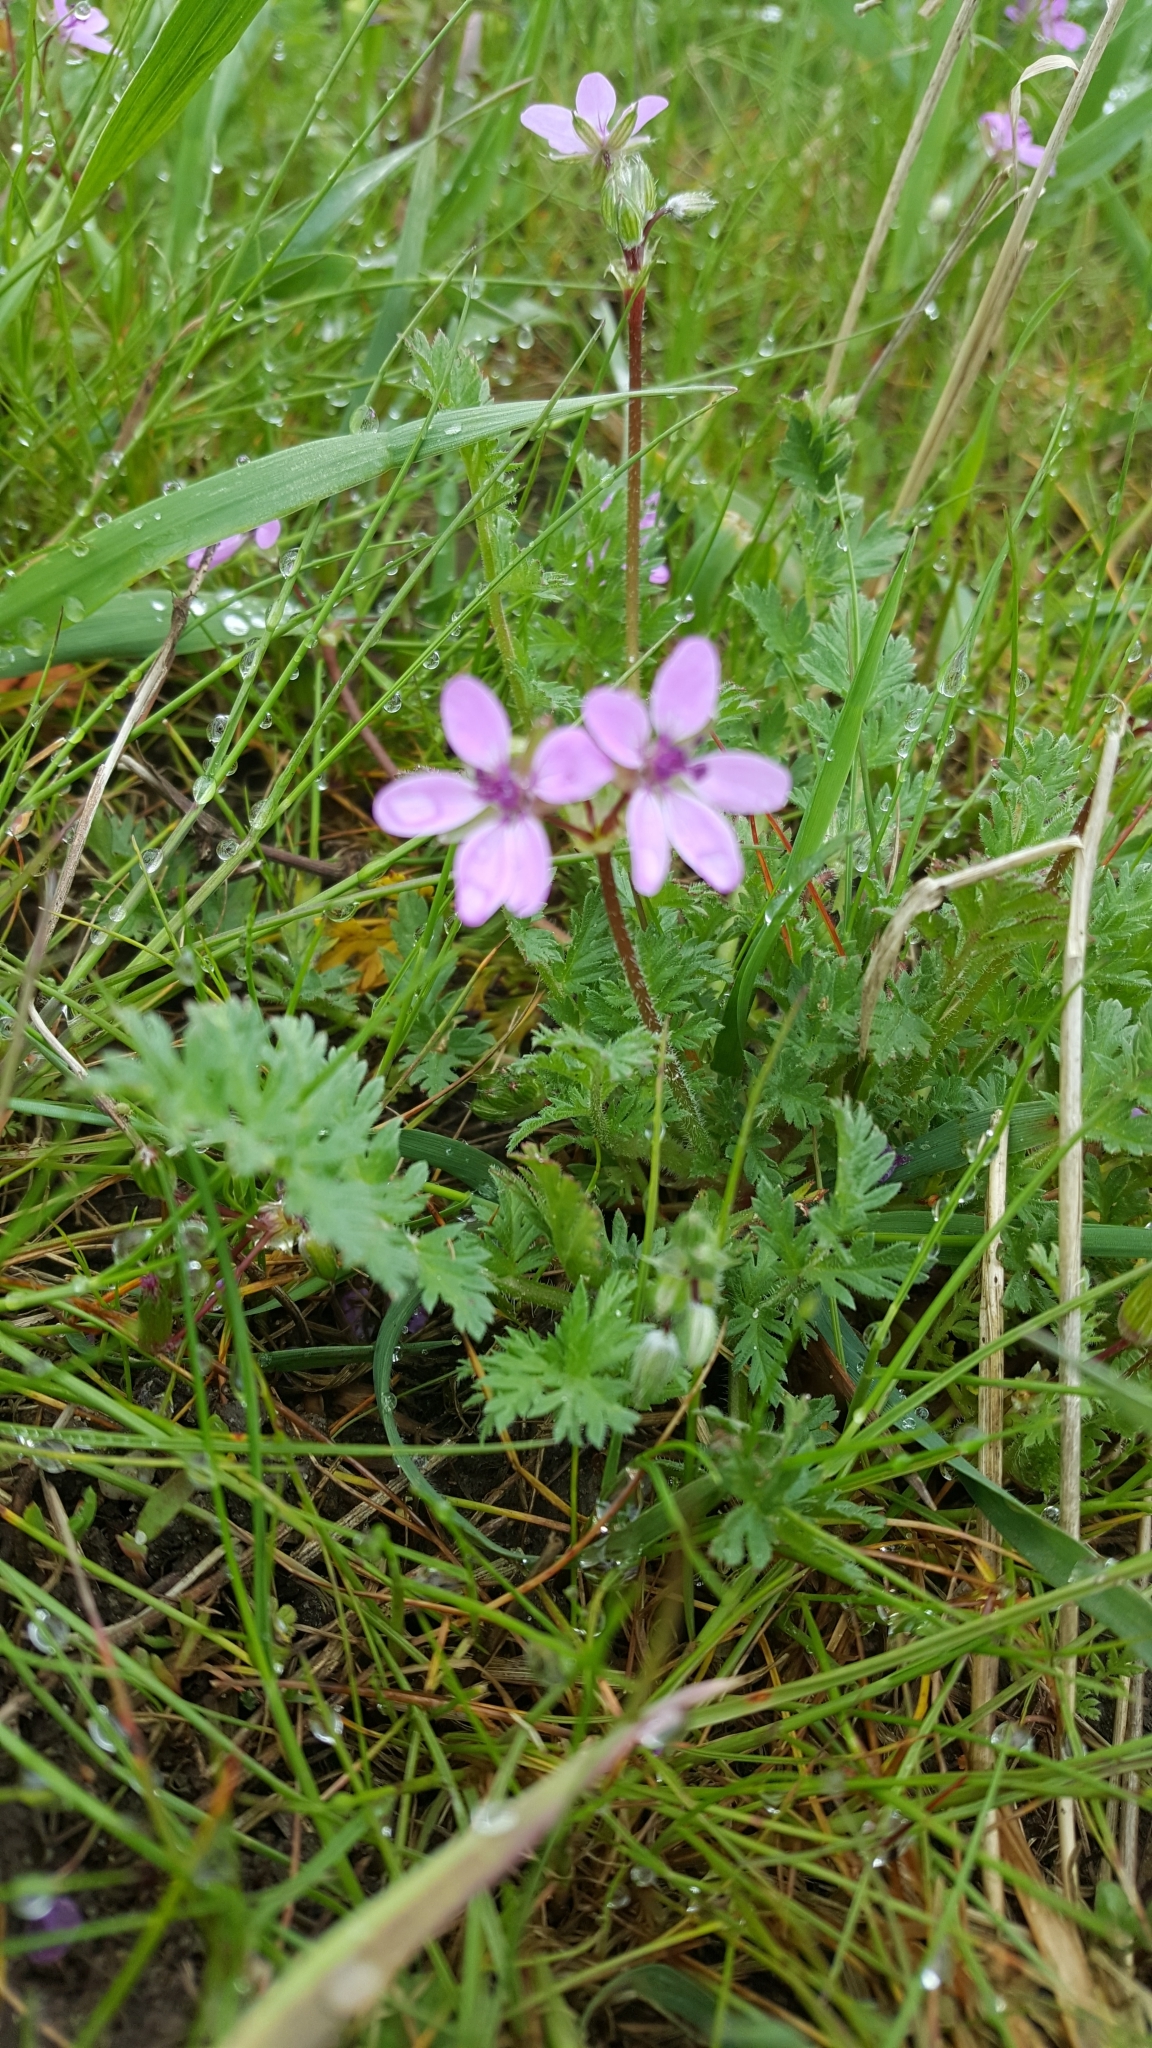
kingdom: Plantae
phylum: Tracheophyta
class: Magnoliopsida
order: Geraniales
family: Geraniaceae
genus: Erodium
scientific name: Erodium cicutarium
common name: Common stork's-bill
